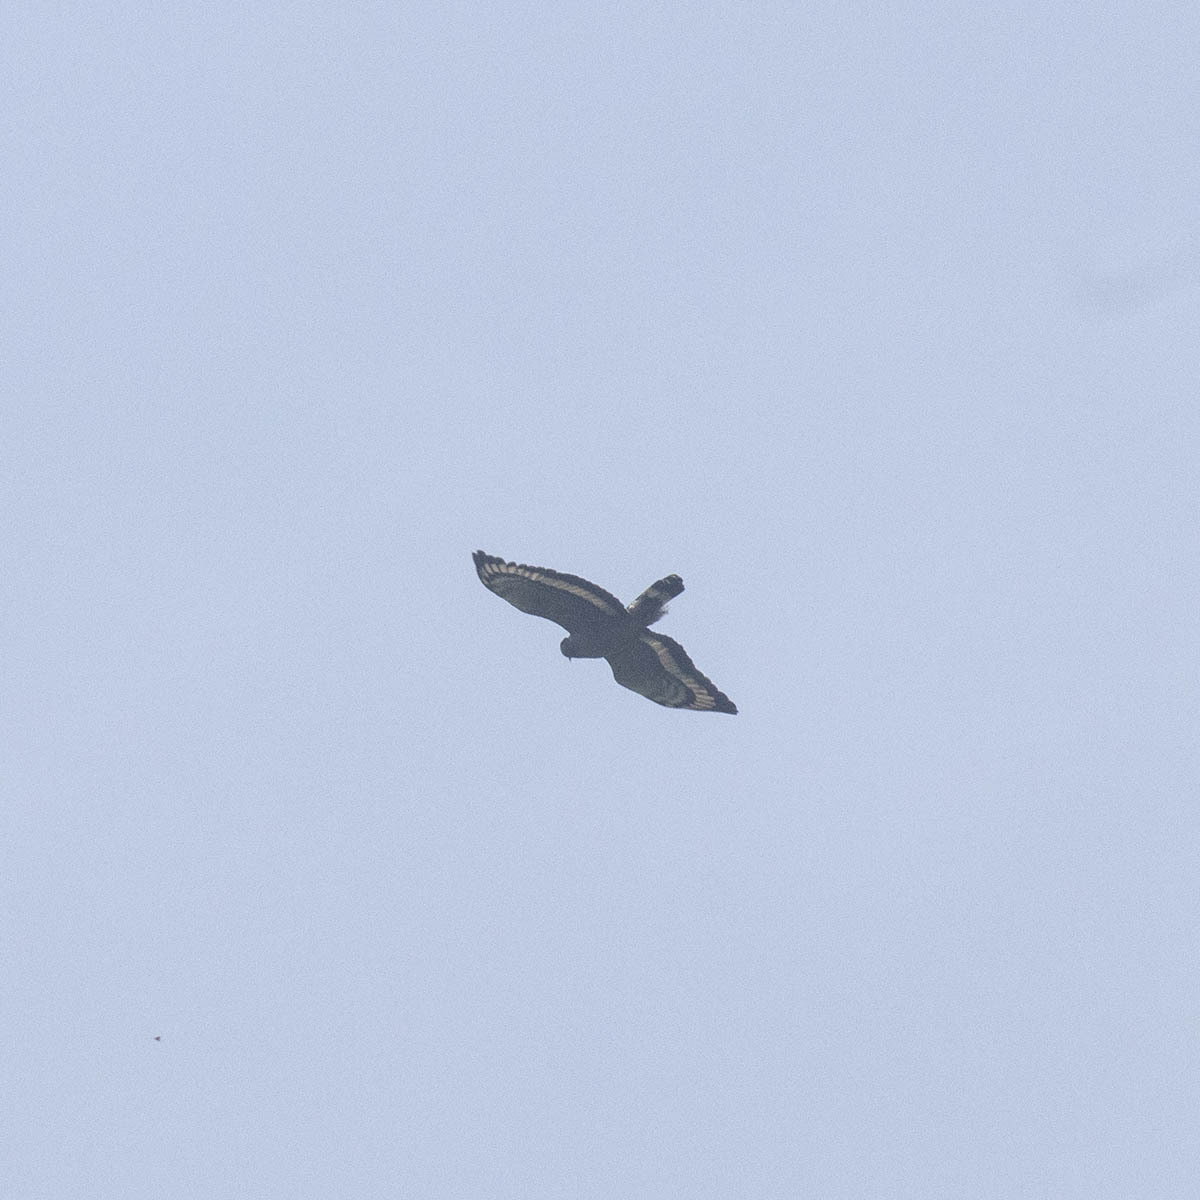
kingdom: Animalia
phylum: Chordata
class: Aves
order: Accipitriformes
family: Accipitridae
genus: Spilornis
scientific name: Spilornis cheela
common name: Crested serpent eagle
